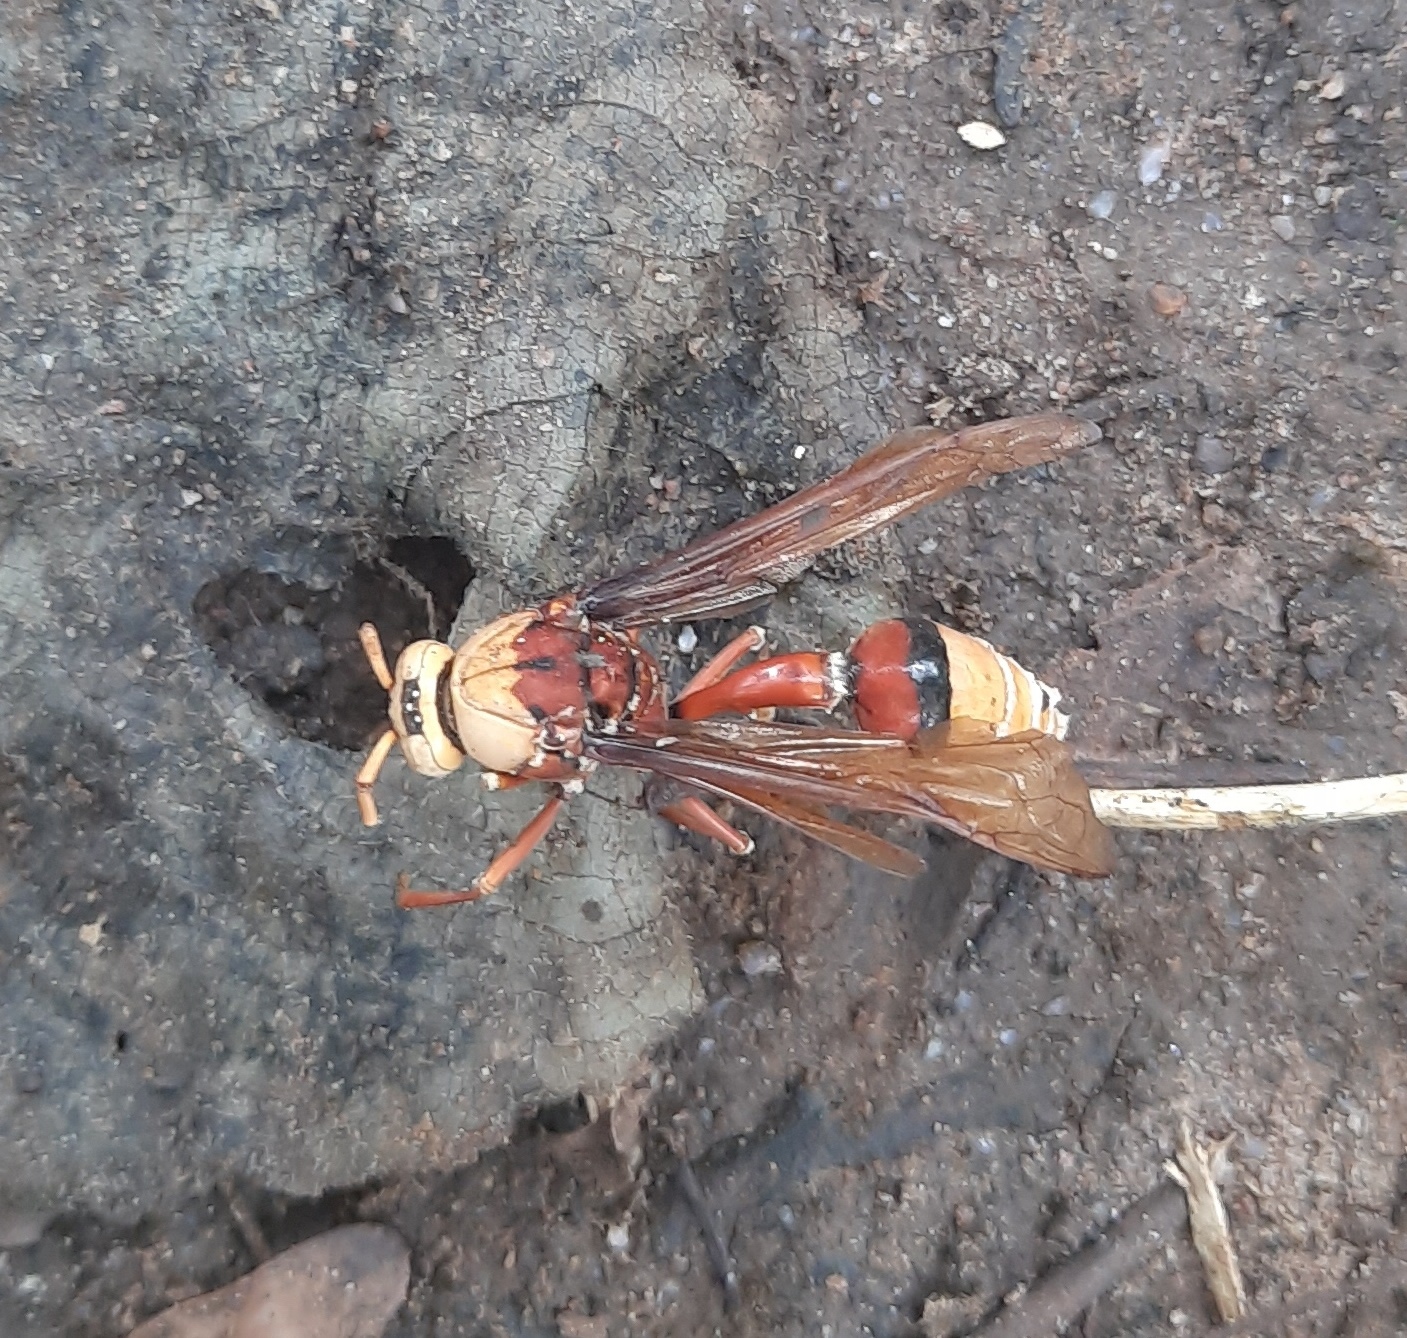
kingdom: Animalia
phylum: Arthropoda
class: Insecta
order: Hymenoptera
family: Eumenidae
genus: Delta
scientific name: Delta pyriforme
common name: Wasp
